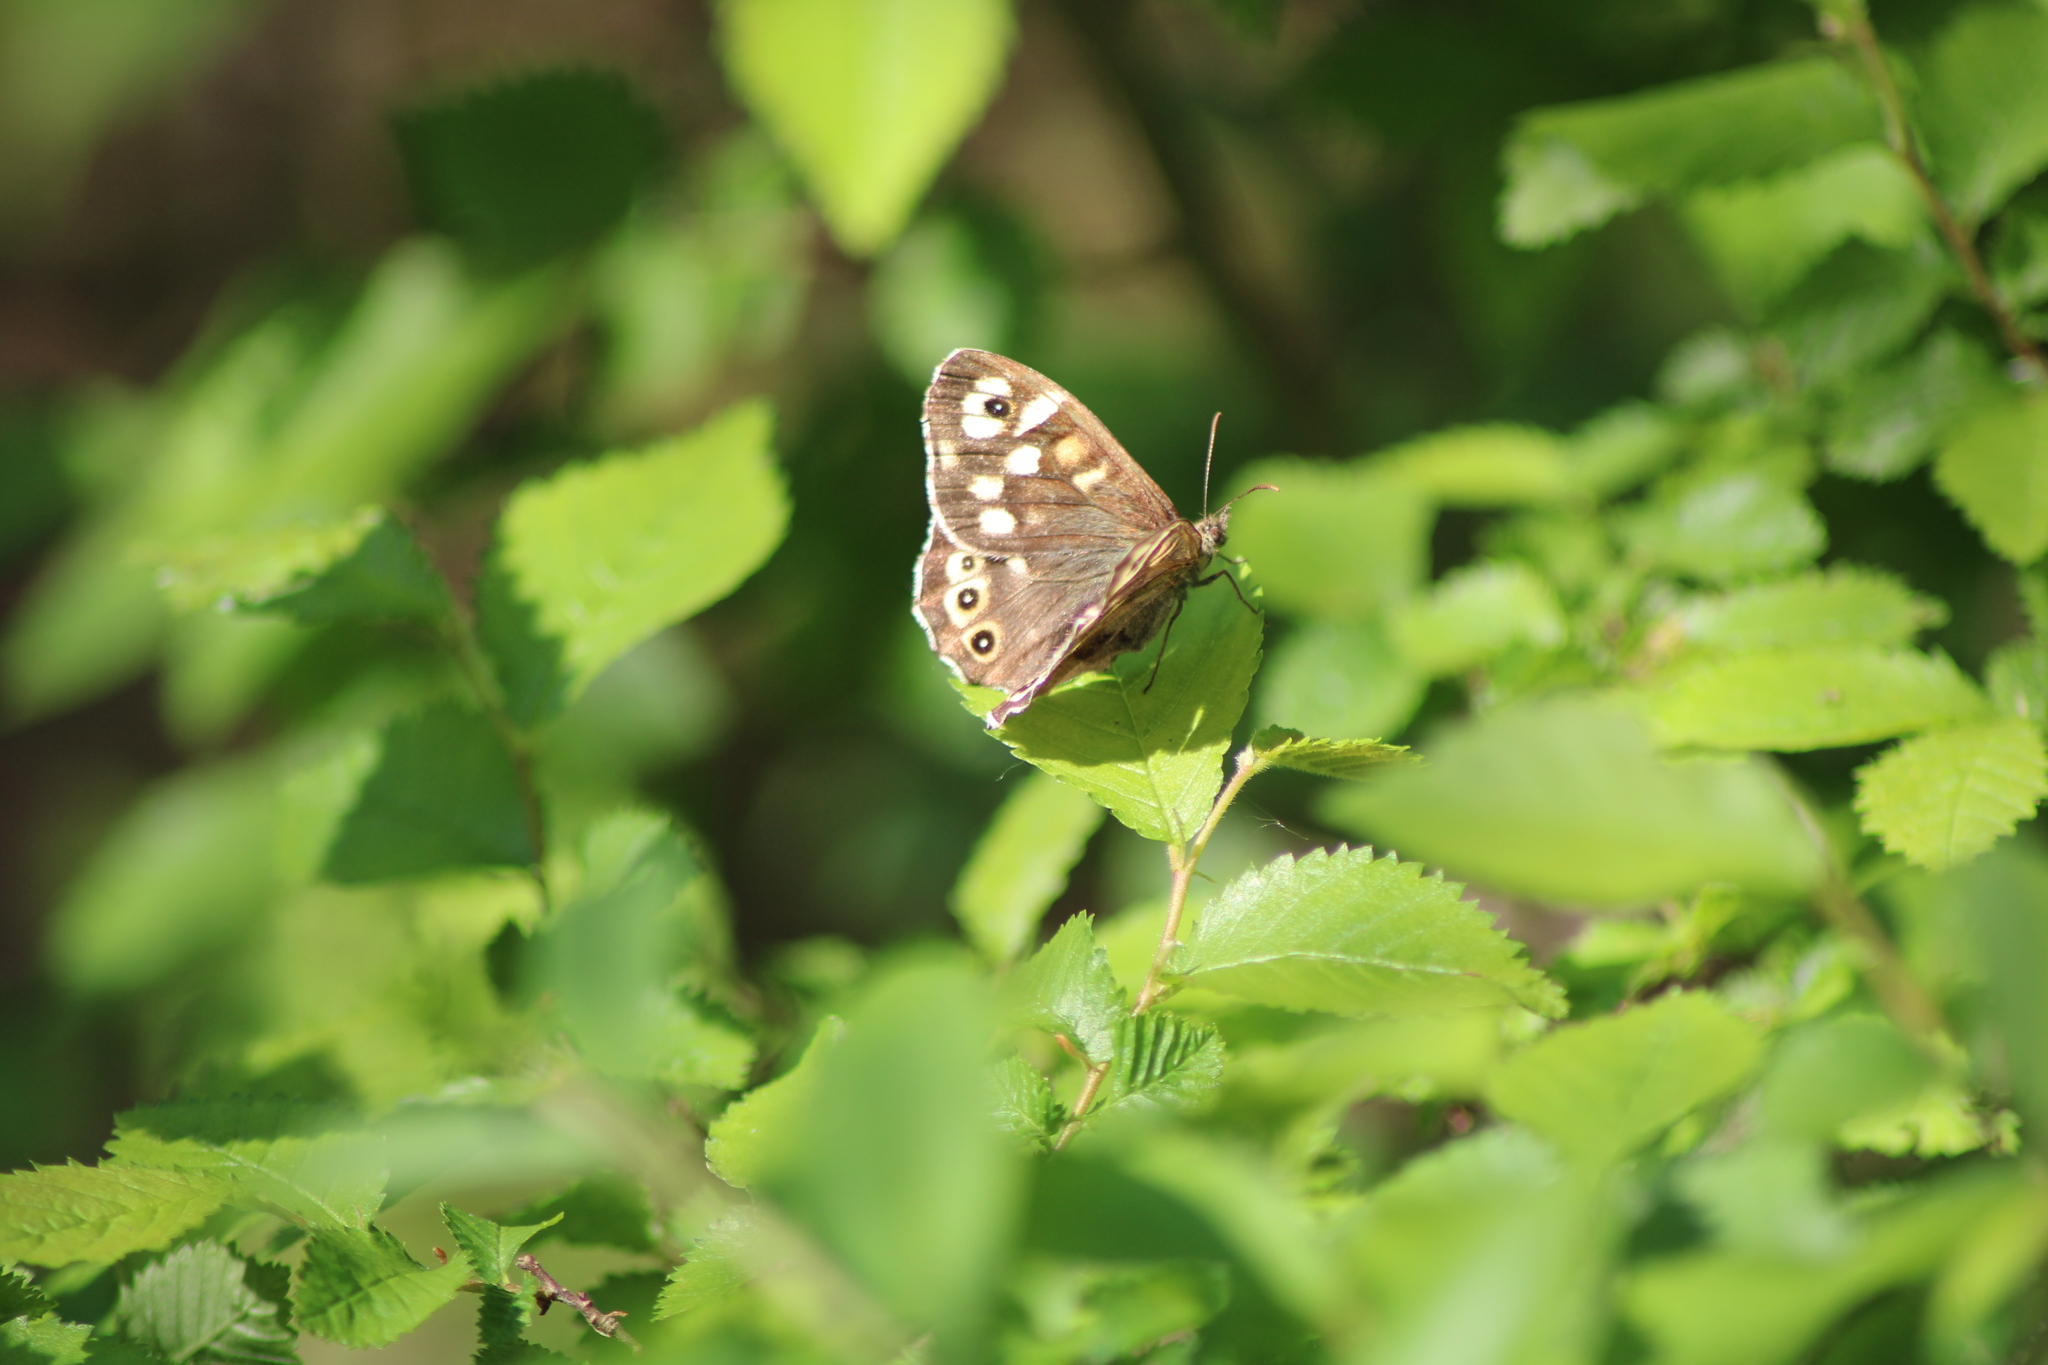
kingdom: Animalia
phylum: Arthropoda
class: Insecta
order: Lepidoptera
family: Nymphalidae
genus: Pararge
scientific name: Pararge aegeria
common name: Speckled wood
